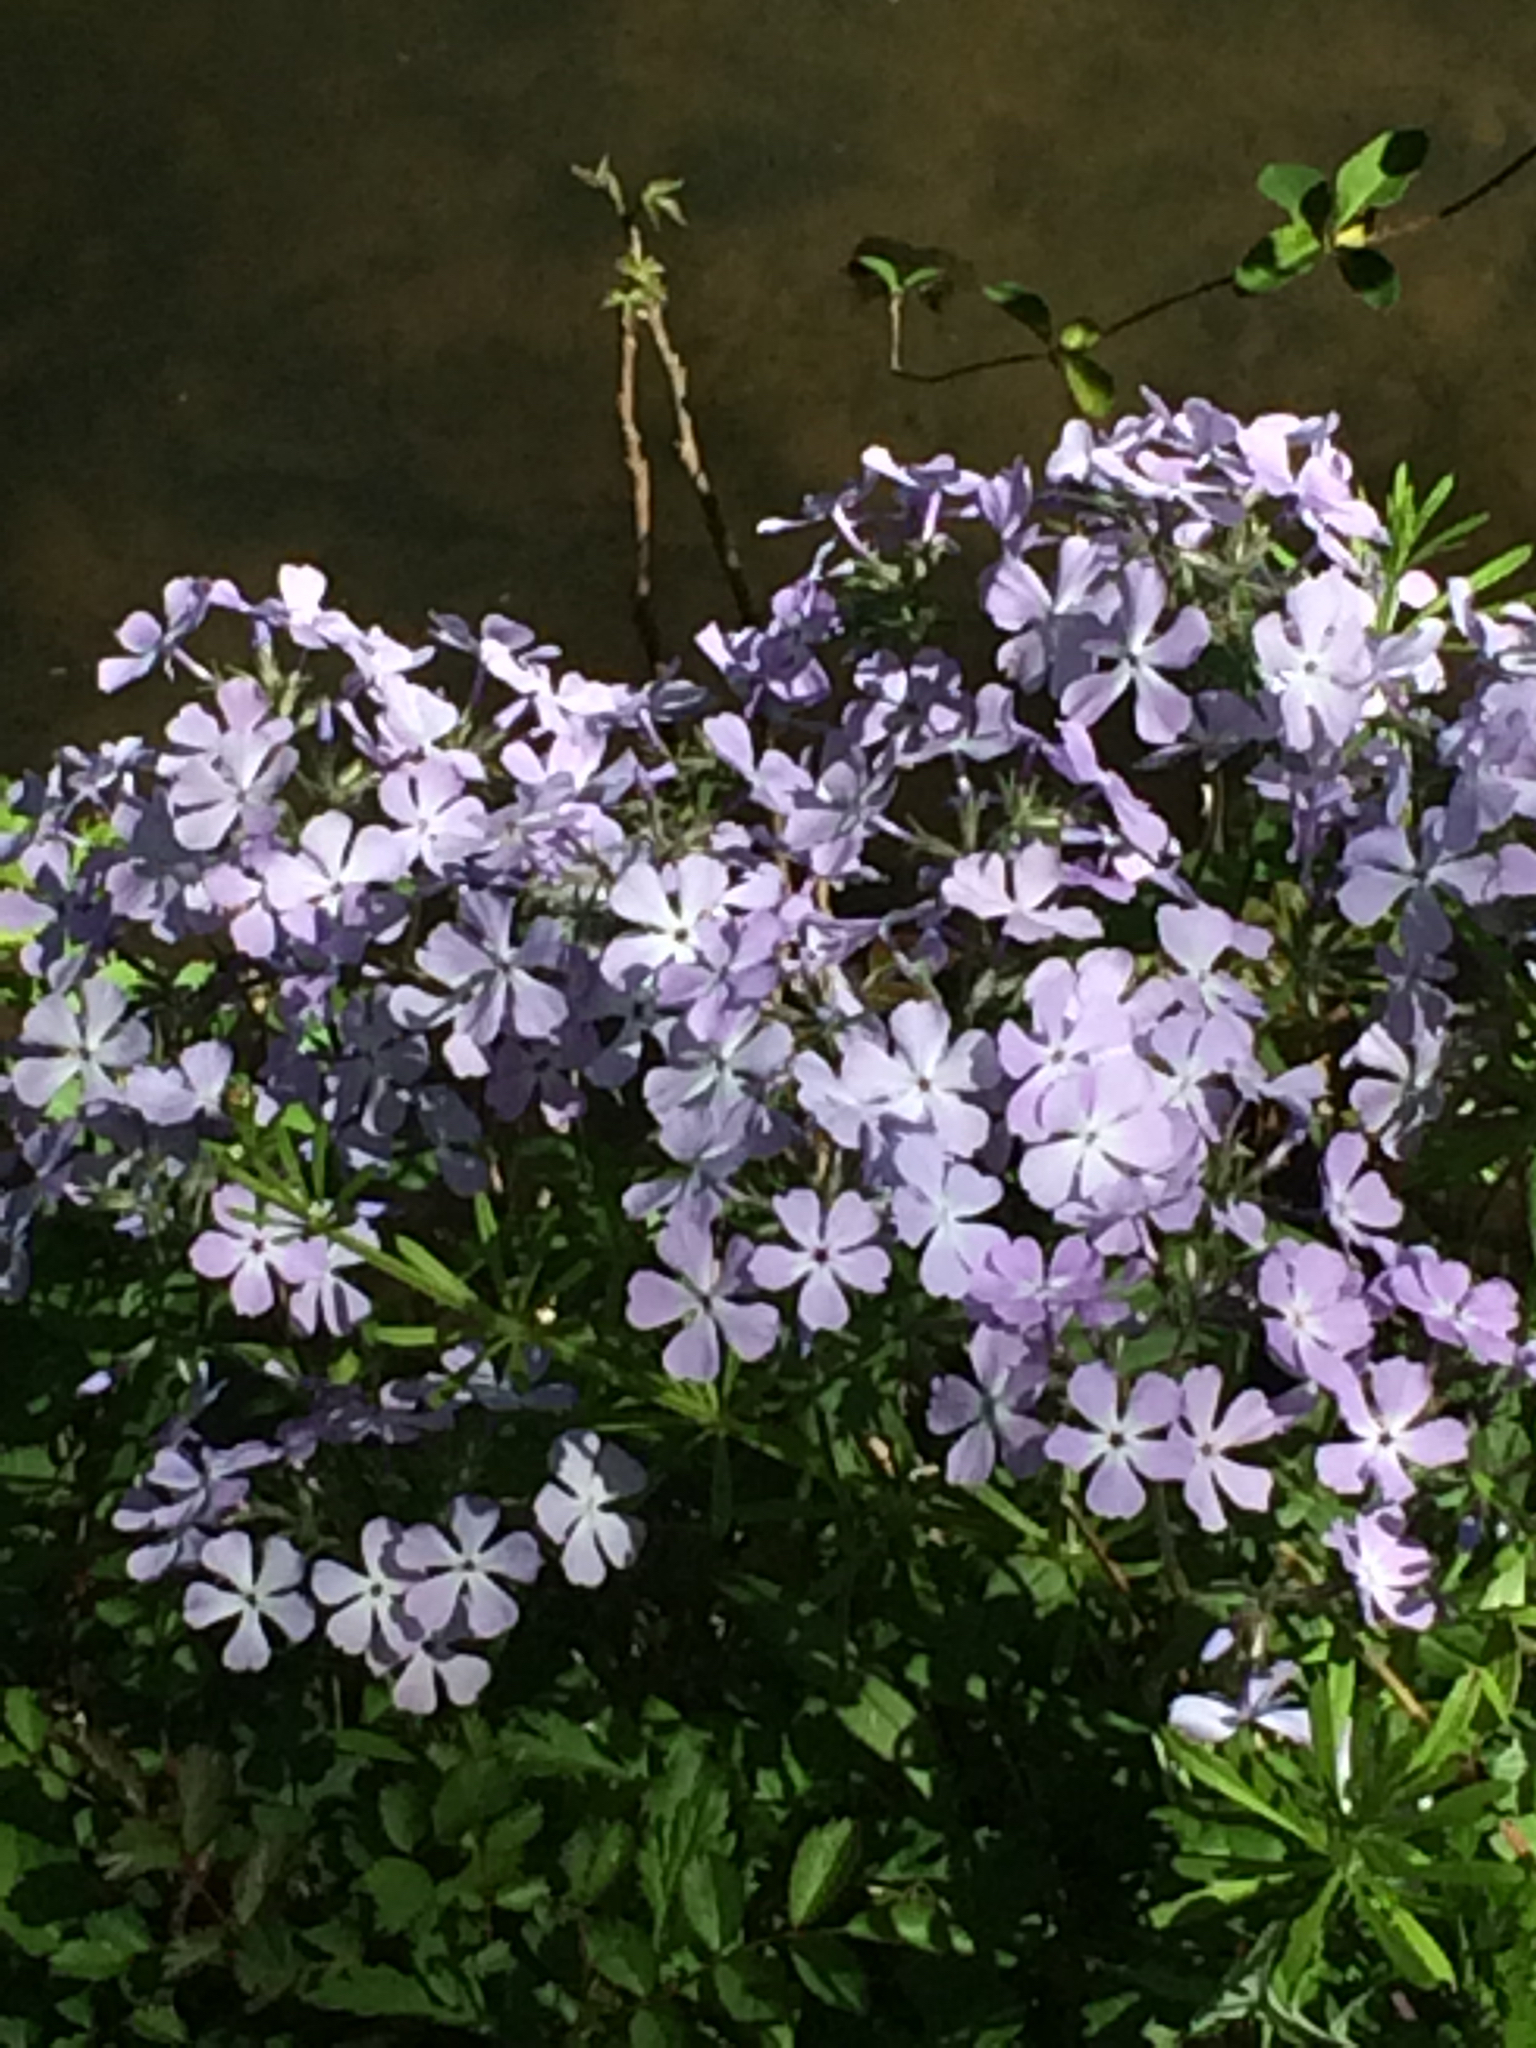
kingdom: Plantae
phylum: Tracheophyta
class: Magnoliopsida
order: Ericales
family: Polemoniaceae
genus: Phlox
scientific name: Phlox divaricata
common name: Blue phlox
